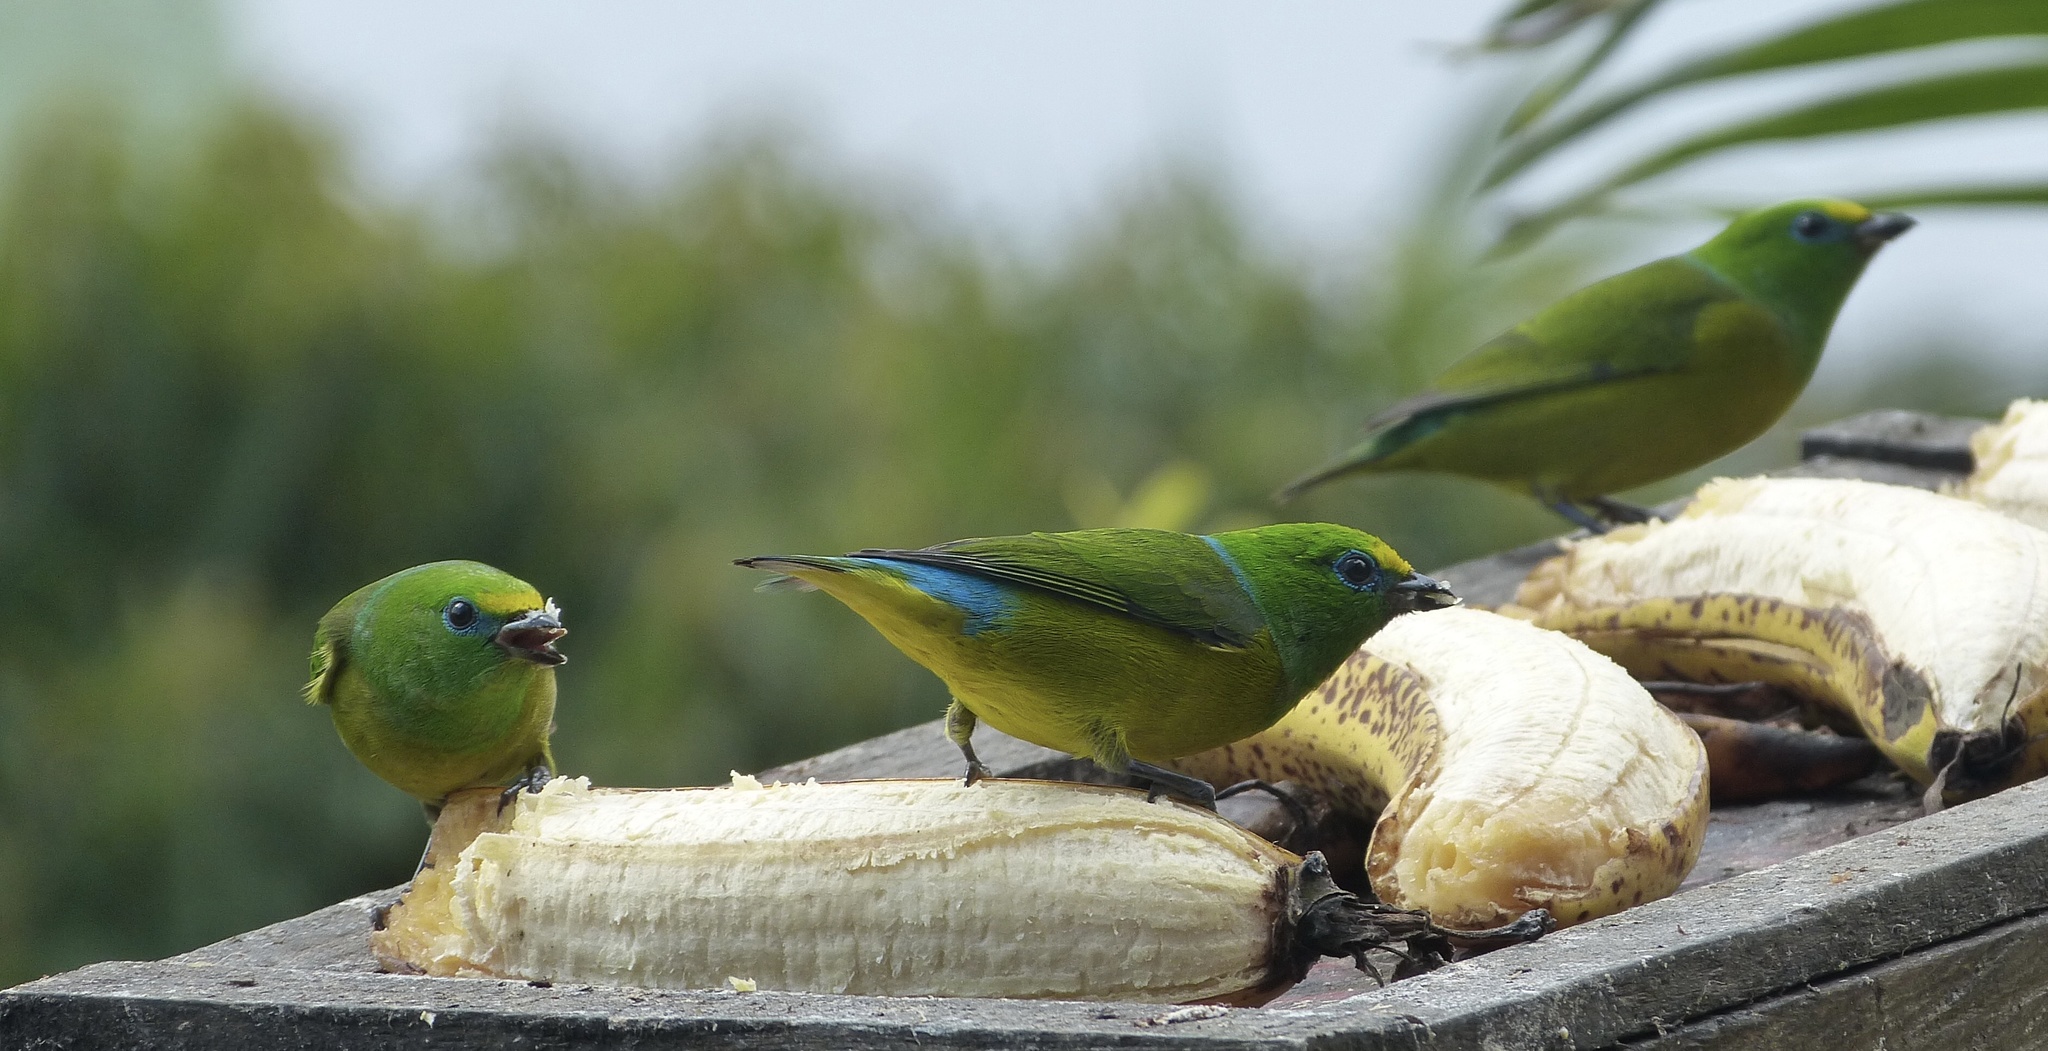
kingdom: Animalia
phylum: Chordata
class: Aves
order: Passeriformes
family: Fringillidae
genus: Chlorophonia
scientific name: Chlorophonia cyanea
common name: Blue-naped chlorophonia
